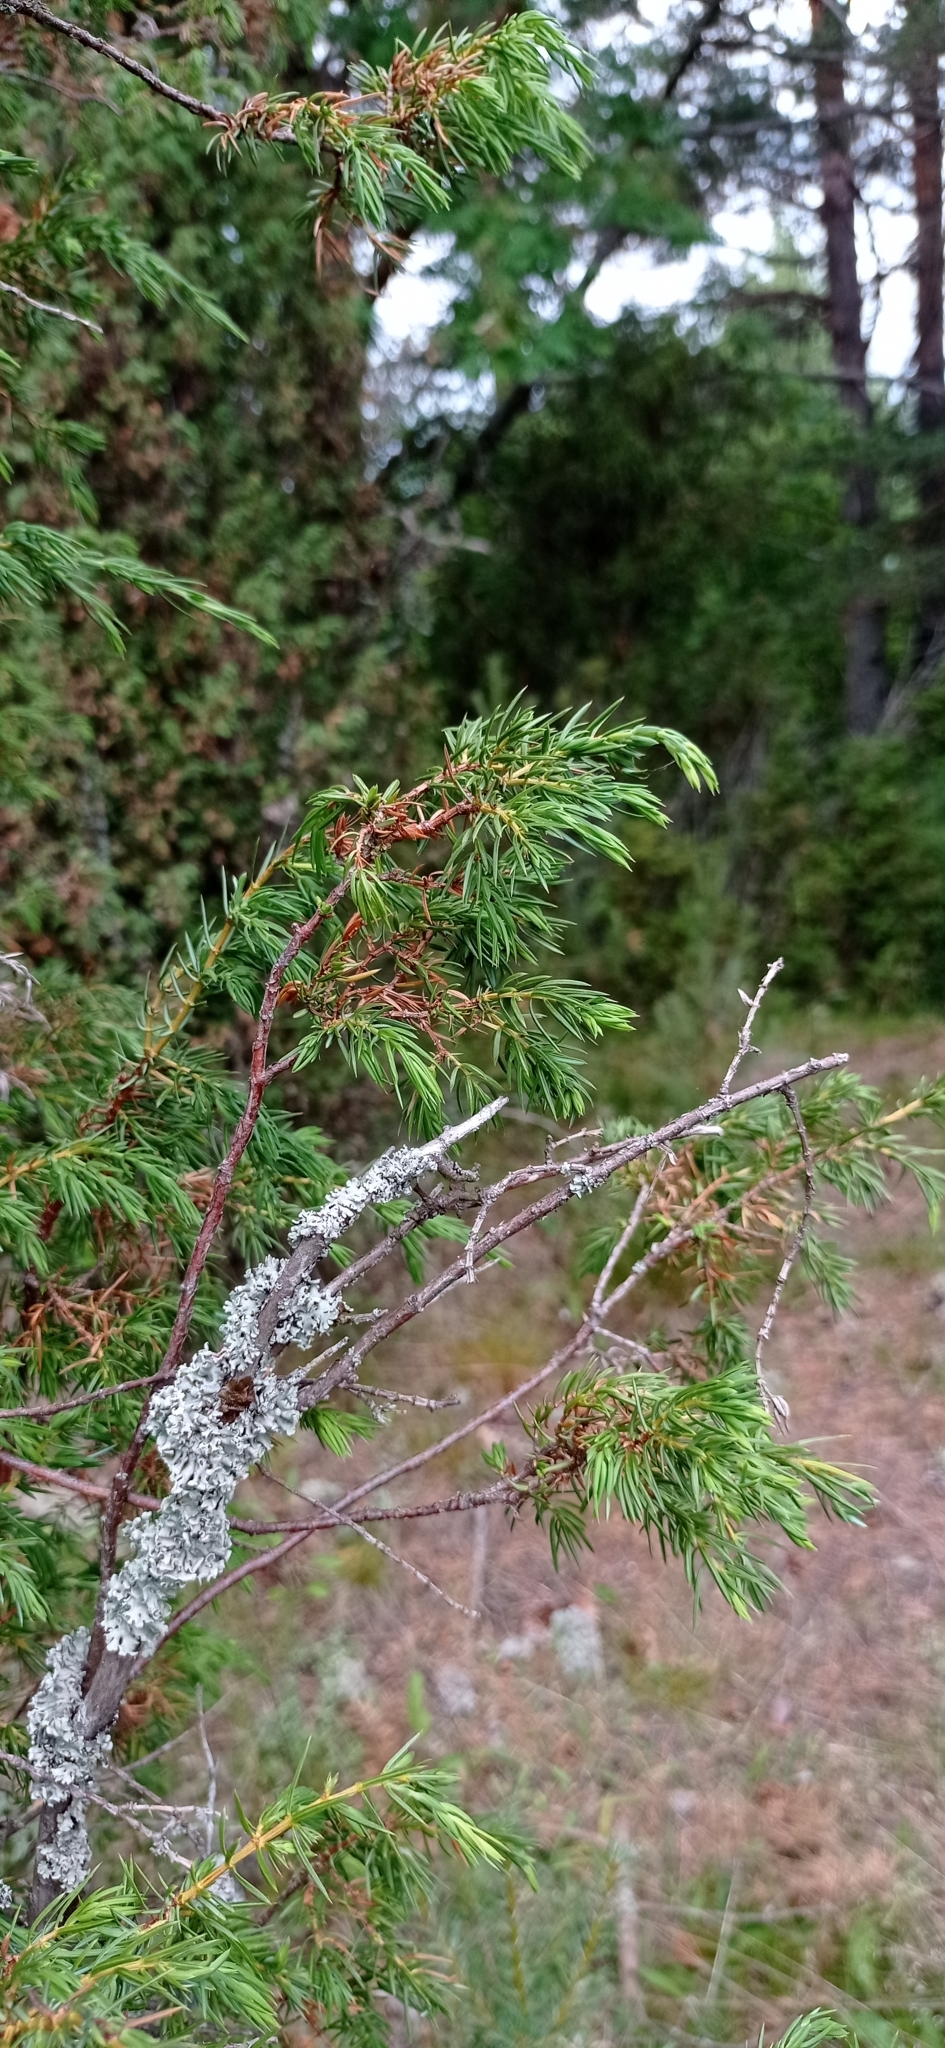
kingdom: Plantae
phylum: Tracheophyta
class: Pinopsida
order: Pinales
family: Cupressaceae
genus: Juniperus
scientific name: Juniperus communis
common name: Common juniper
